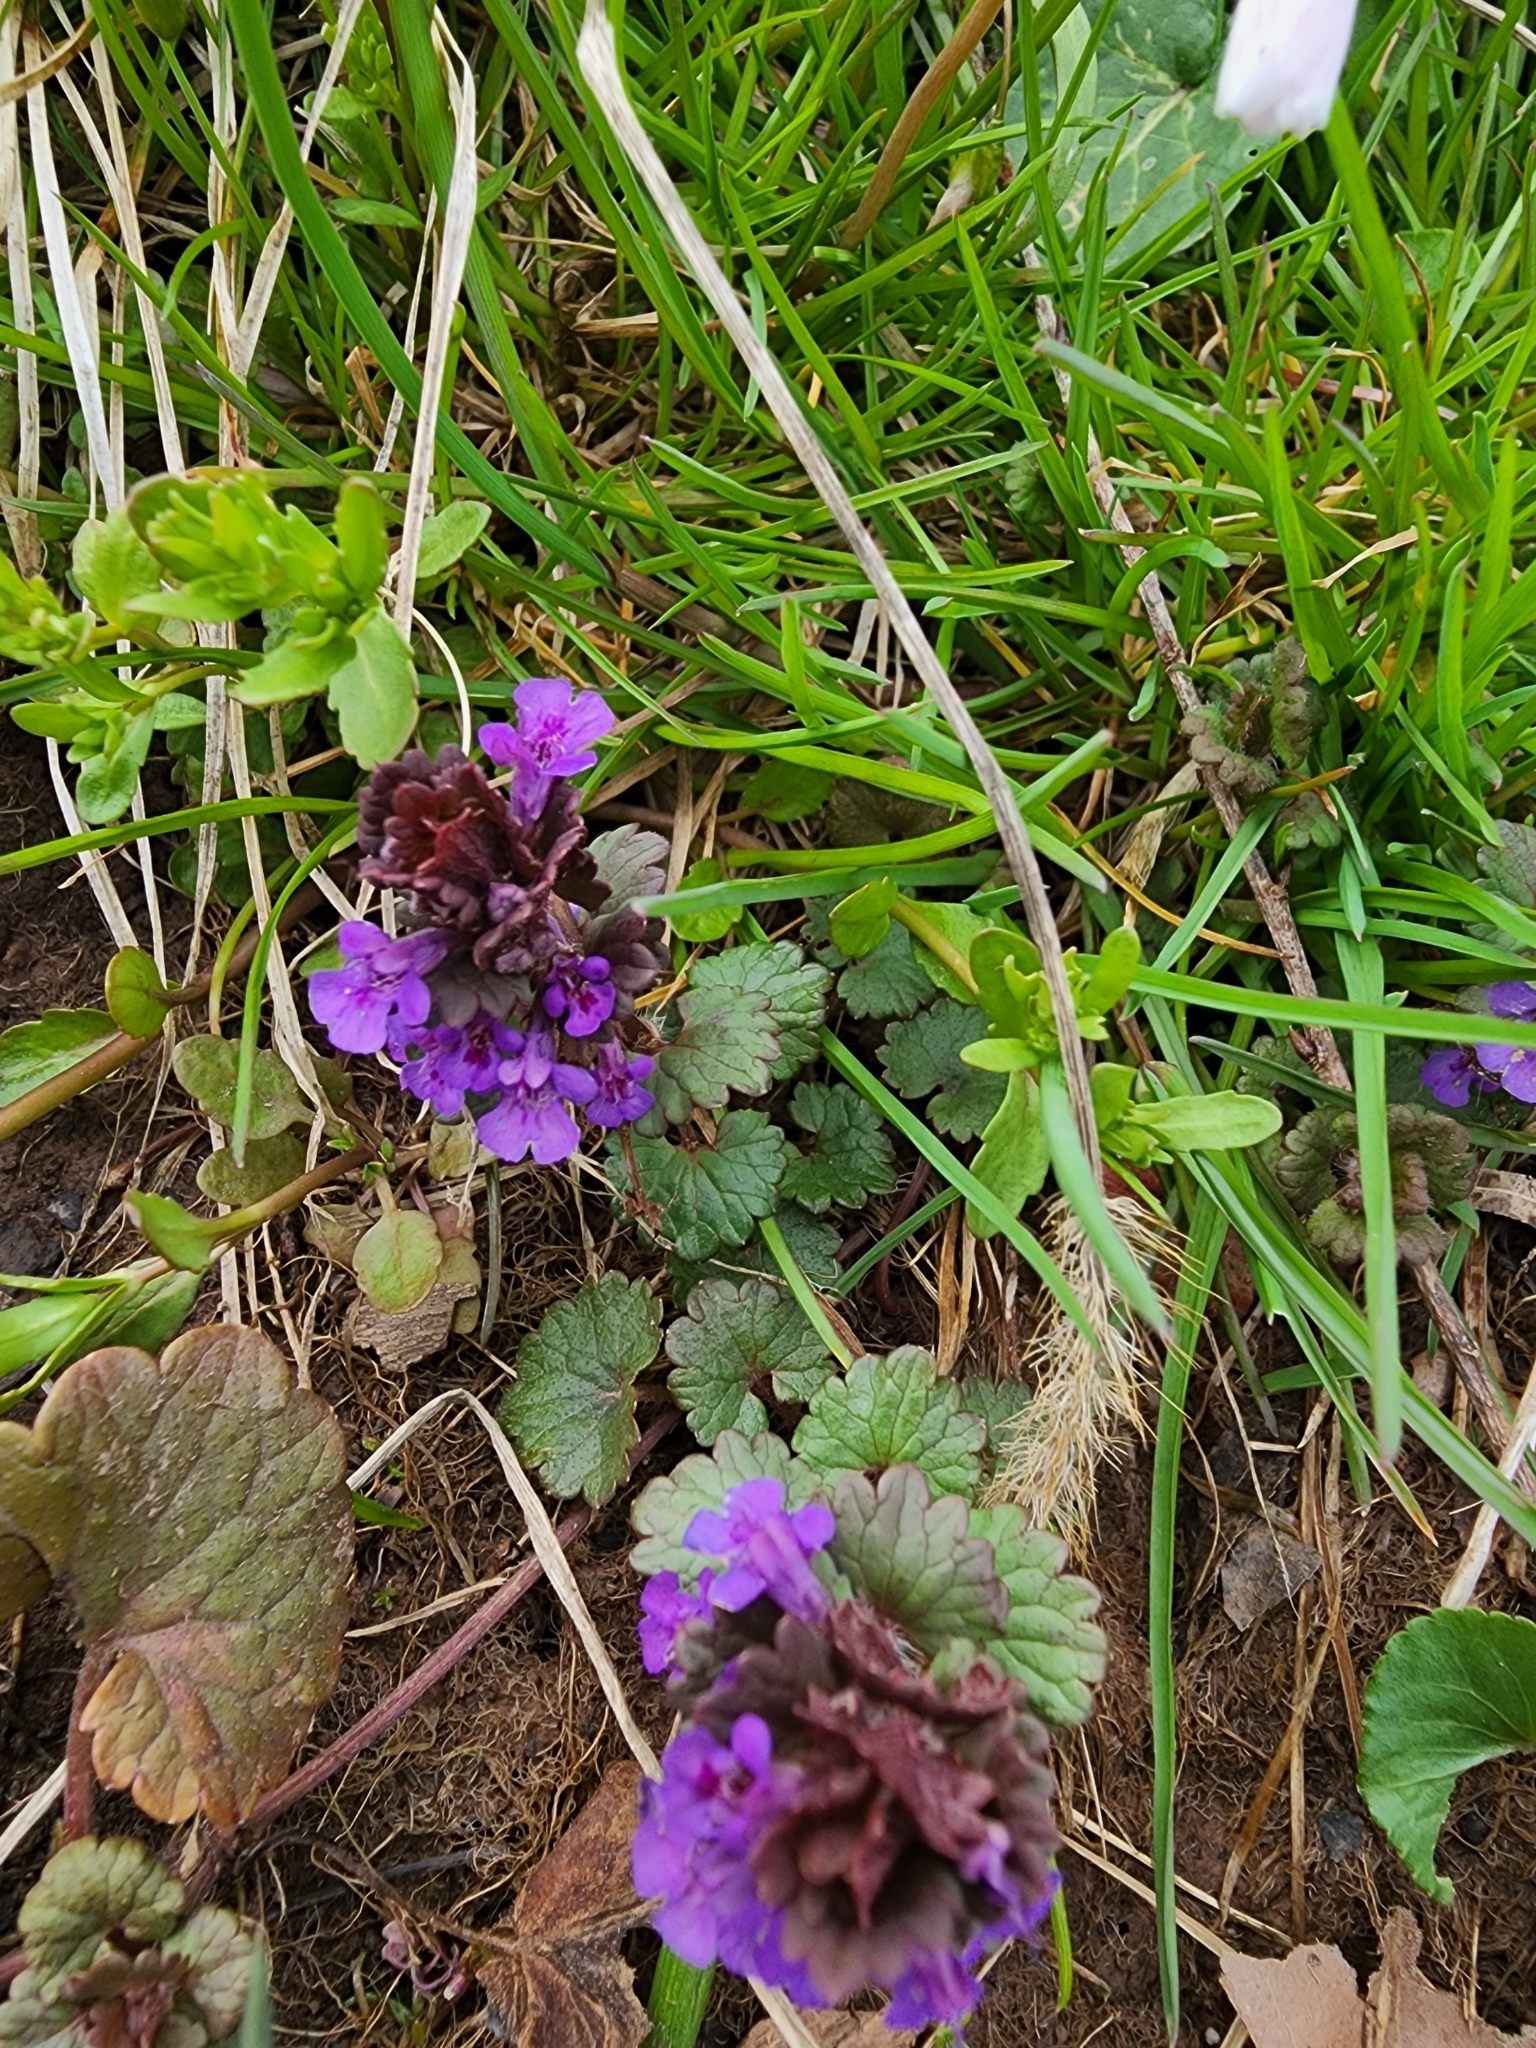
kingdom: Plantae
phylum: Tracheophyta
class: Magnoliopsida
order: Lamiales
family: Lamiaceae
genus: Glechoma
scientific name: Glechoma hederacea
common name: Ground ivy
